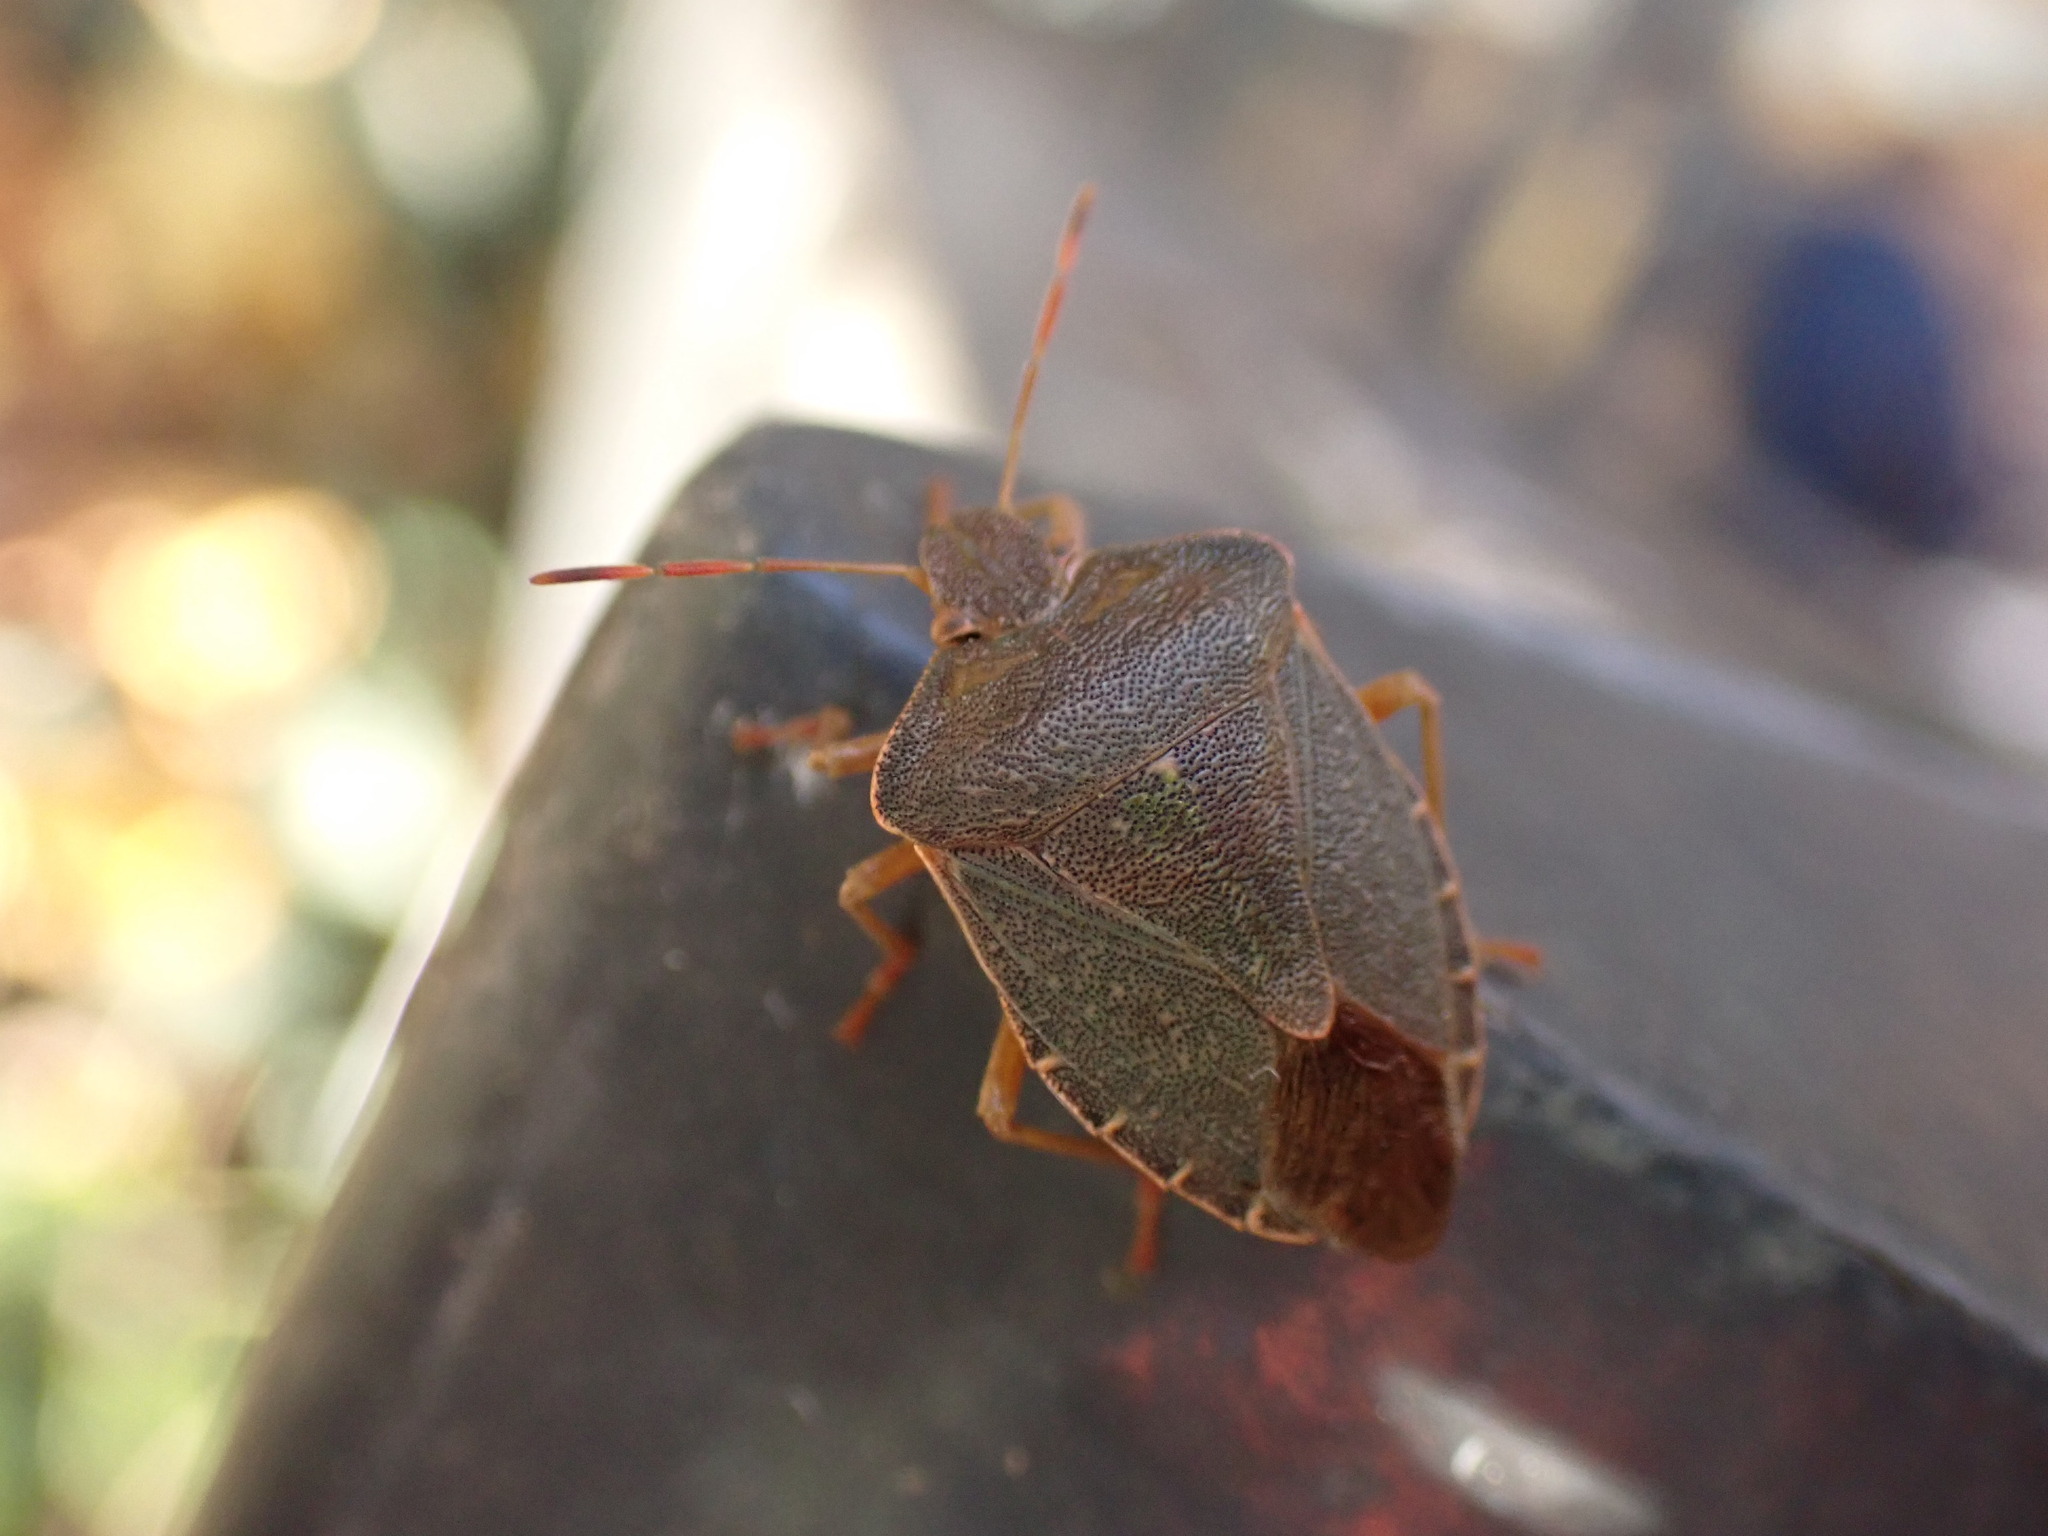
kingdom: Animalia
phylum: Arthropoda
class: Insecta
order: Hemiptera
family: Pentatomidae
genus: Palomena
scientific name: Palomena prasina
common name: Green shieldbug
